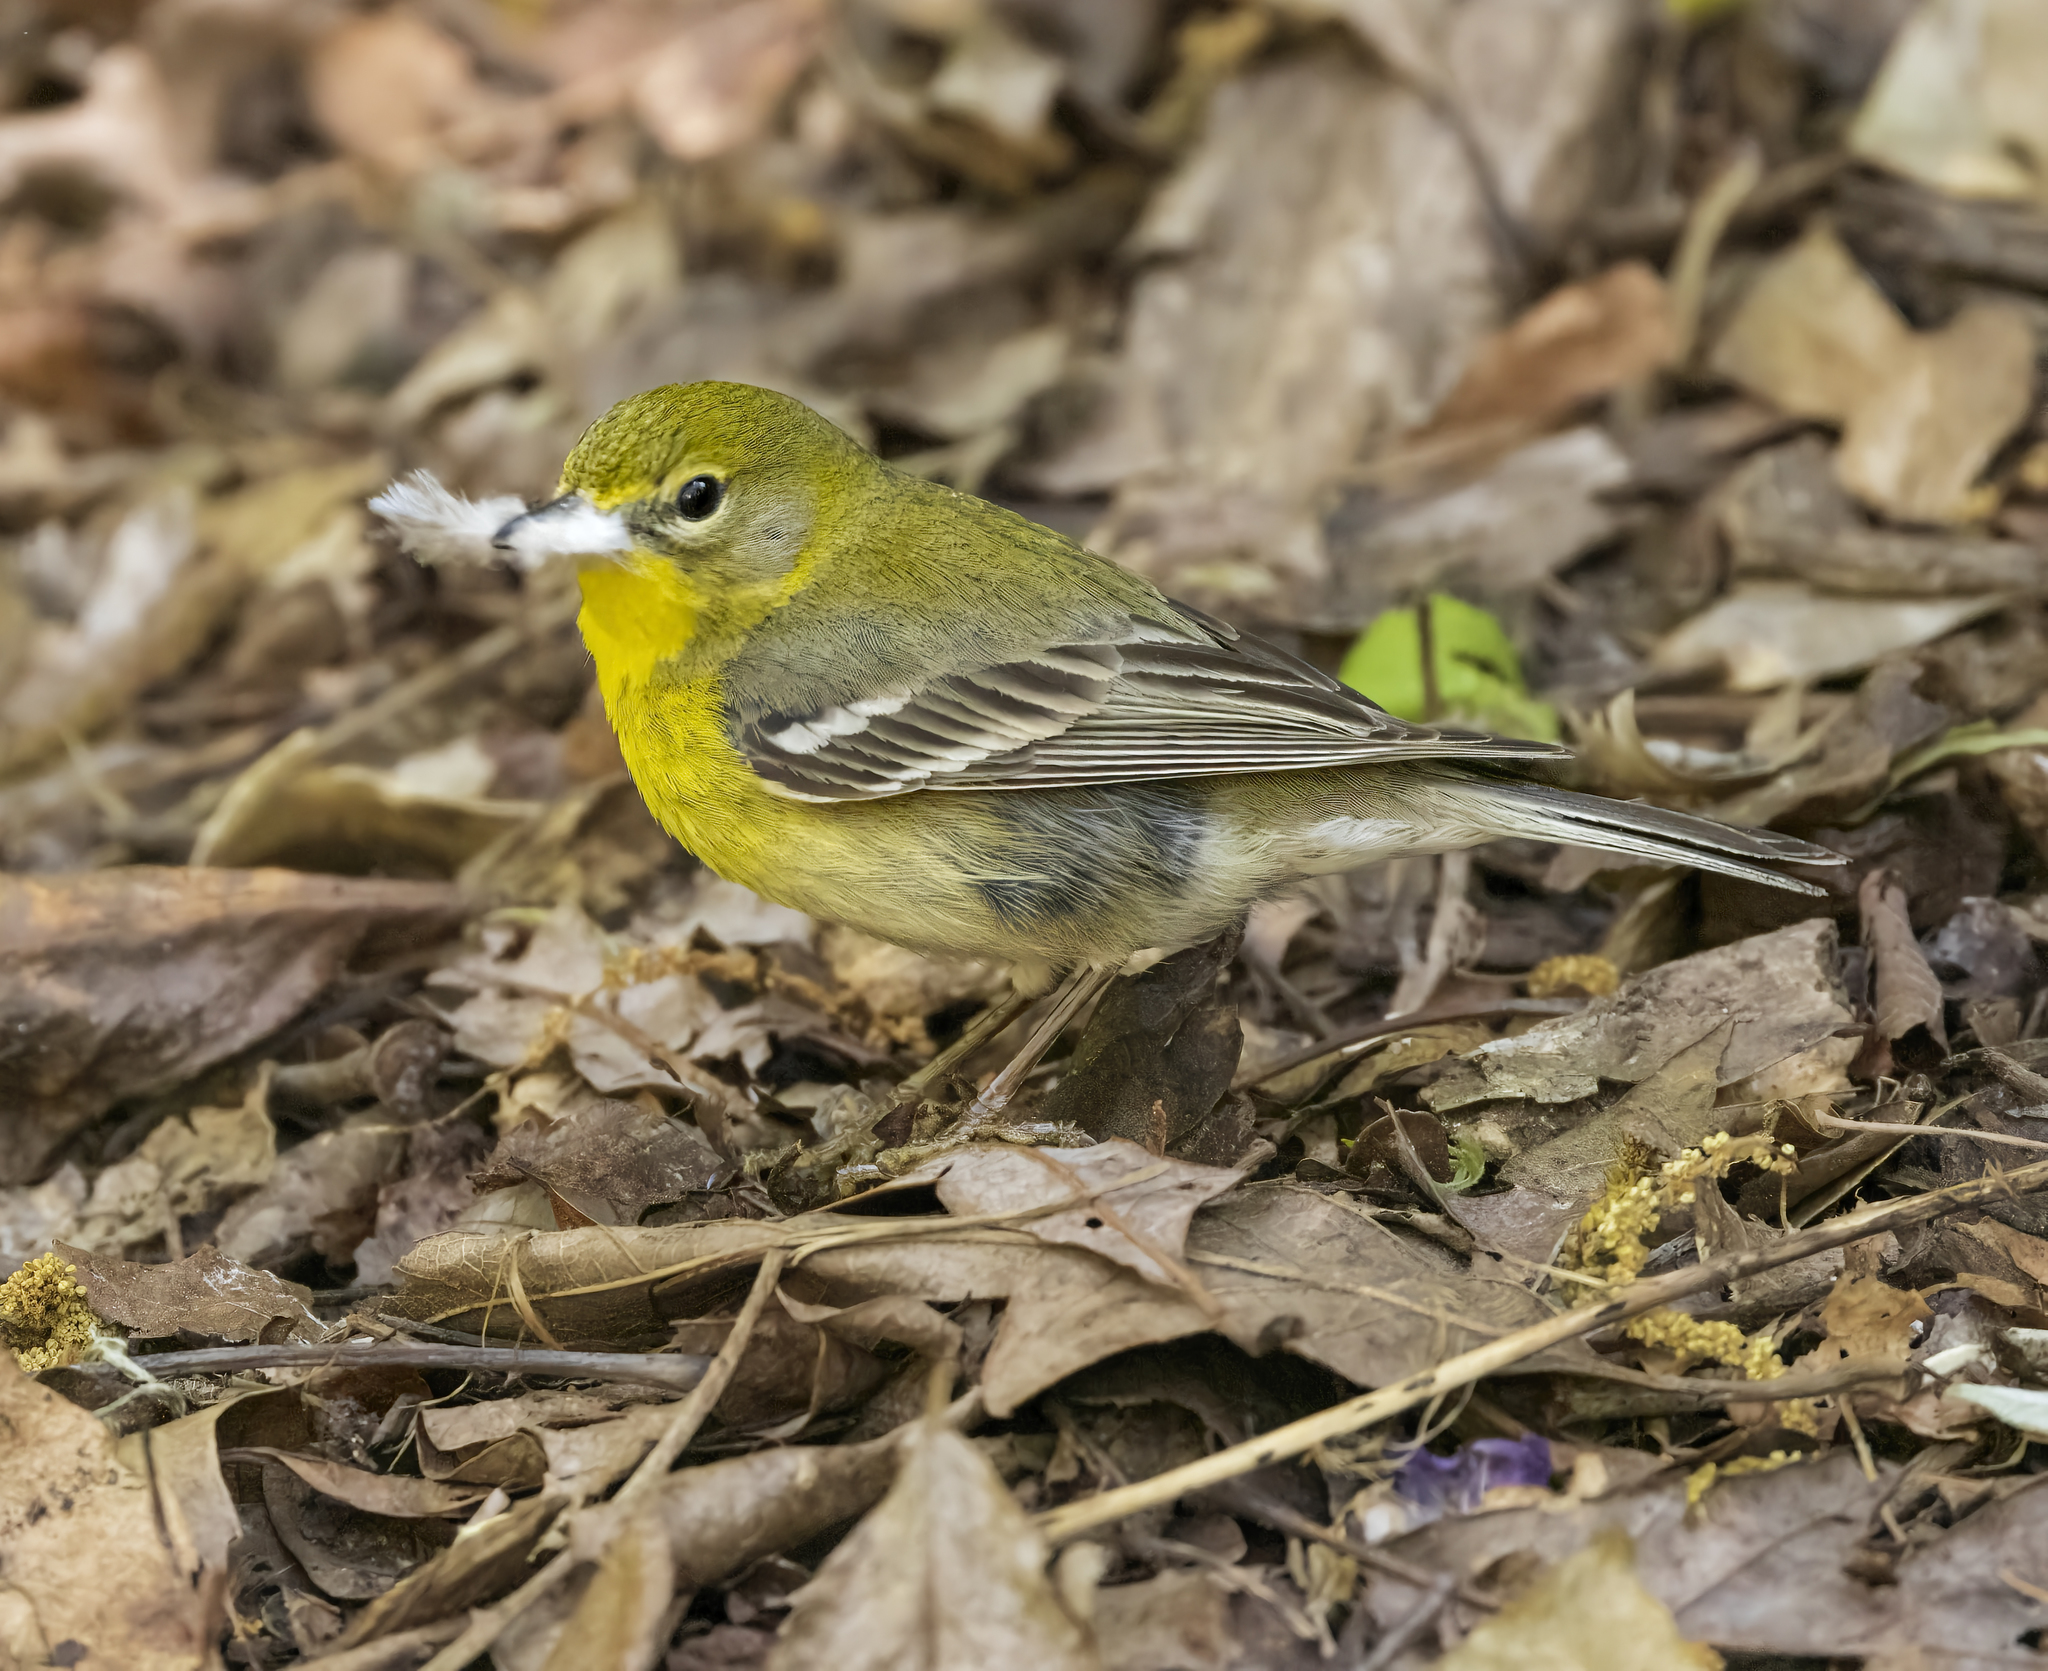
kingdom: Animalia
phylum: Chordata
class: Aves
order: Passeriformes
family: Parulidae
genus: Setophaga
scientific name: Setophaga pinus
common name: Pine warbler
